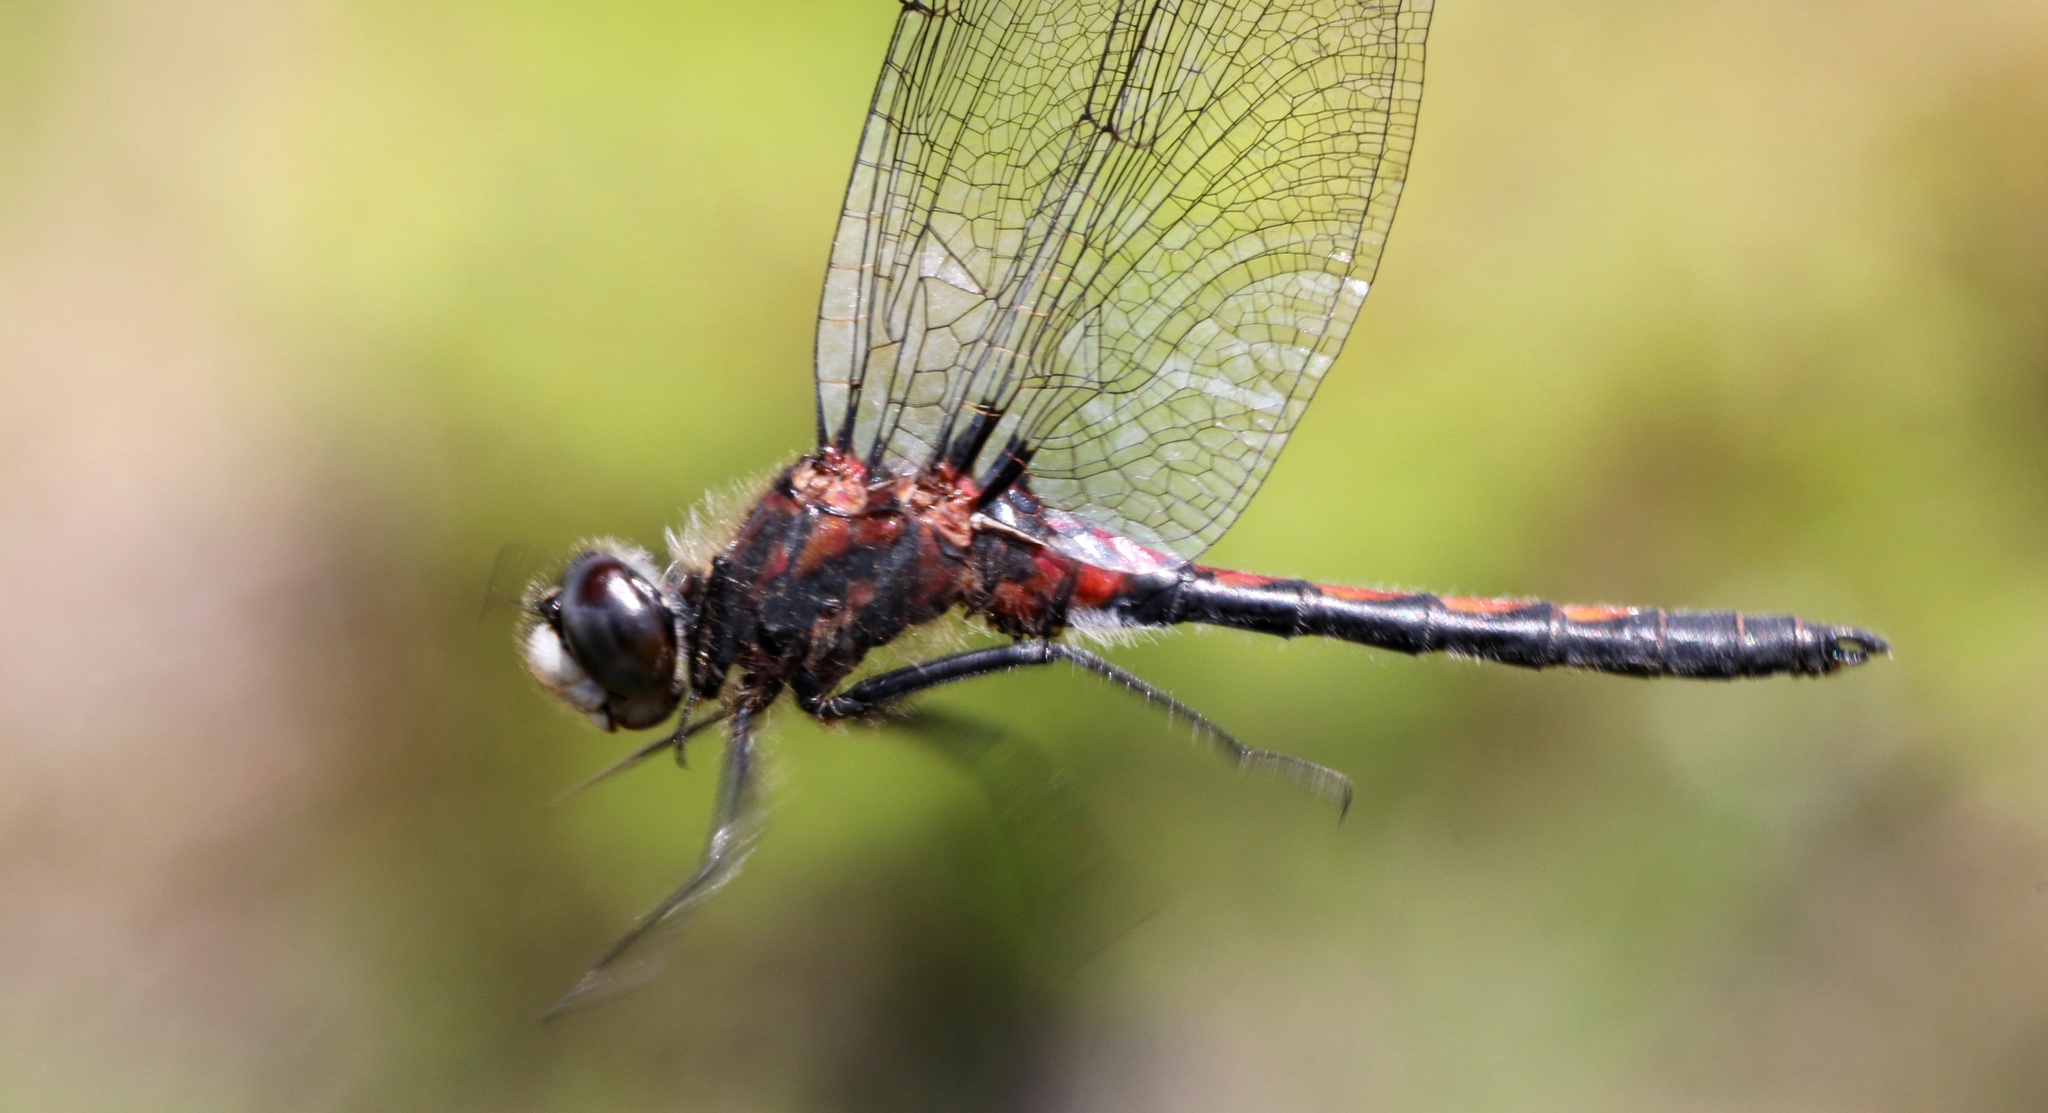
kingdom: Animalia
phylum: Arthropoda
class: Insecta
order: Odonata
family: Libellulidae
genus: Leucorrhinia
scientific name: Leucorrhinia hudsonica
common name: Hudsonian whiteface
